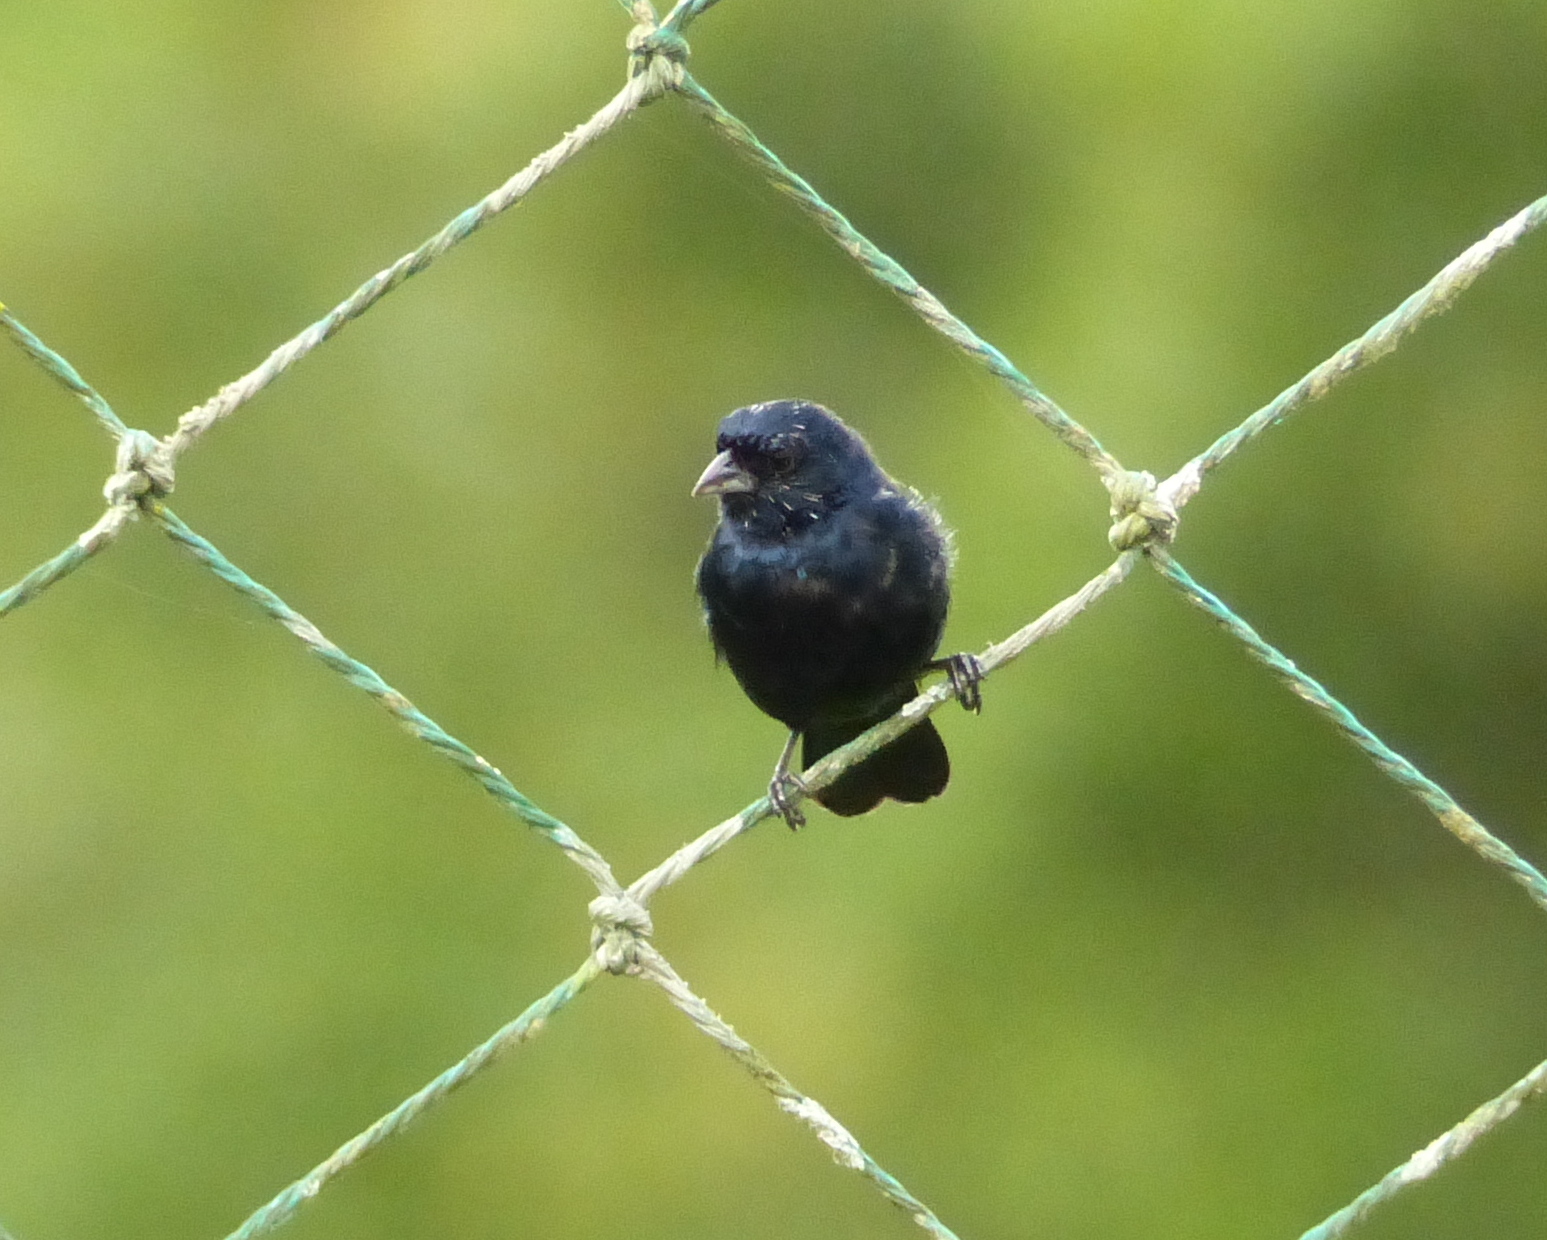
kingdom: Animalia
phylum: Chordata
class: Aves
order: Passeriformes
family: Thraupidae
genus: Volatinia
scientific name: Volatinia jacarina
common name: Blue-black grassquit
